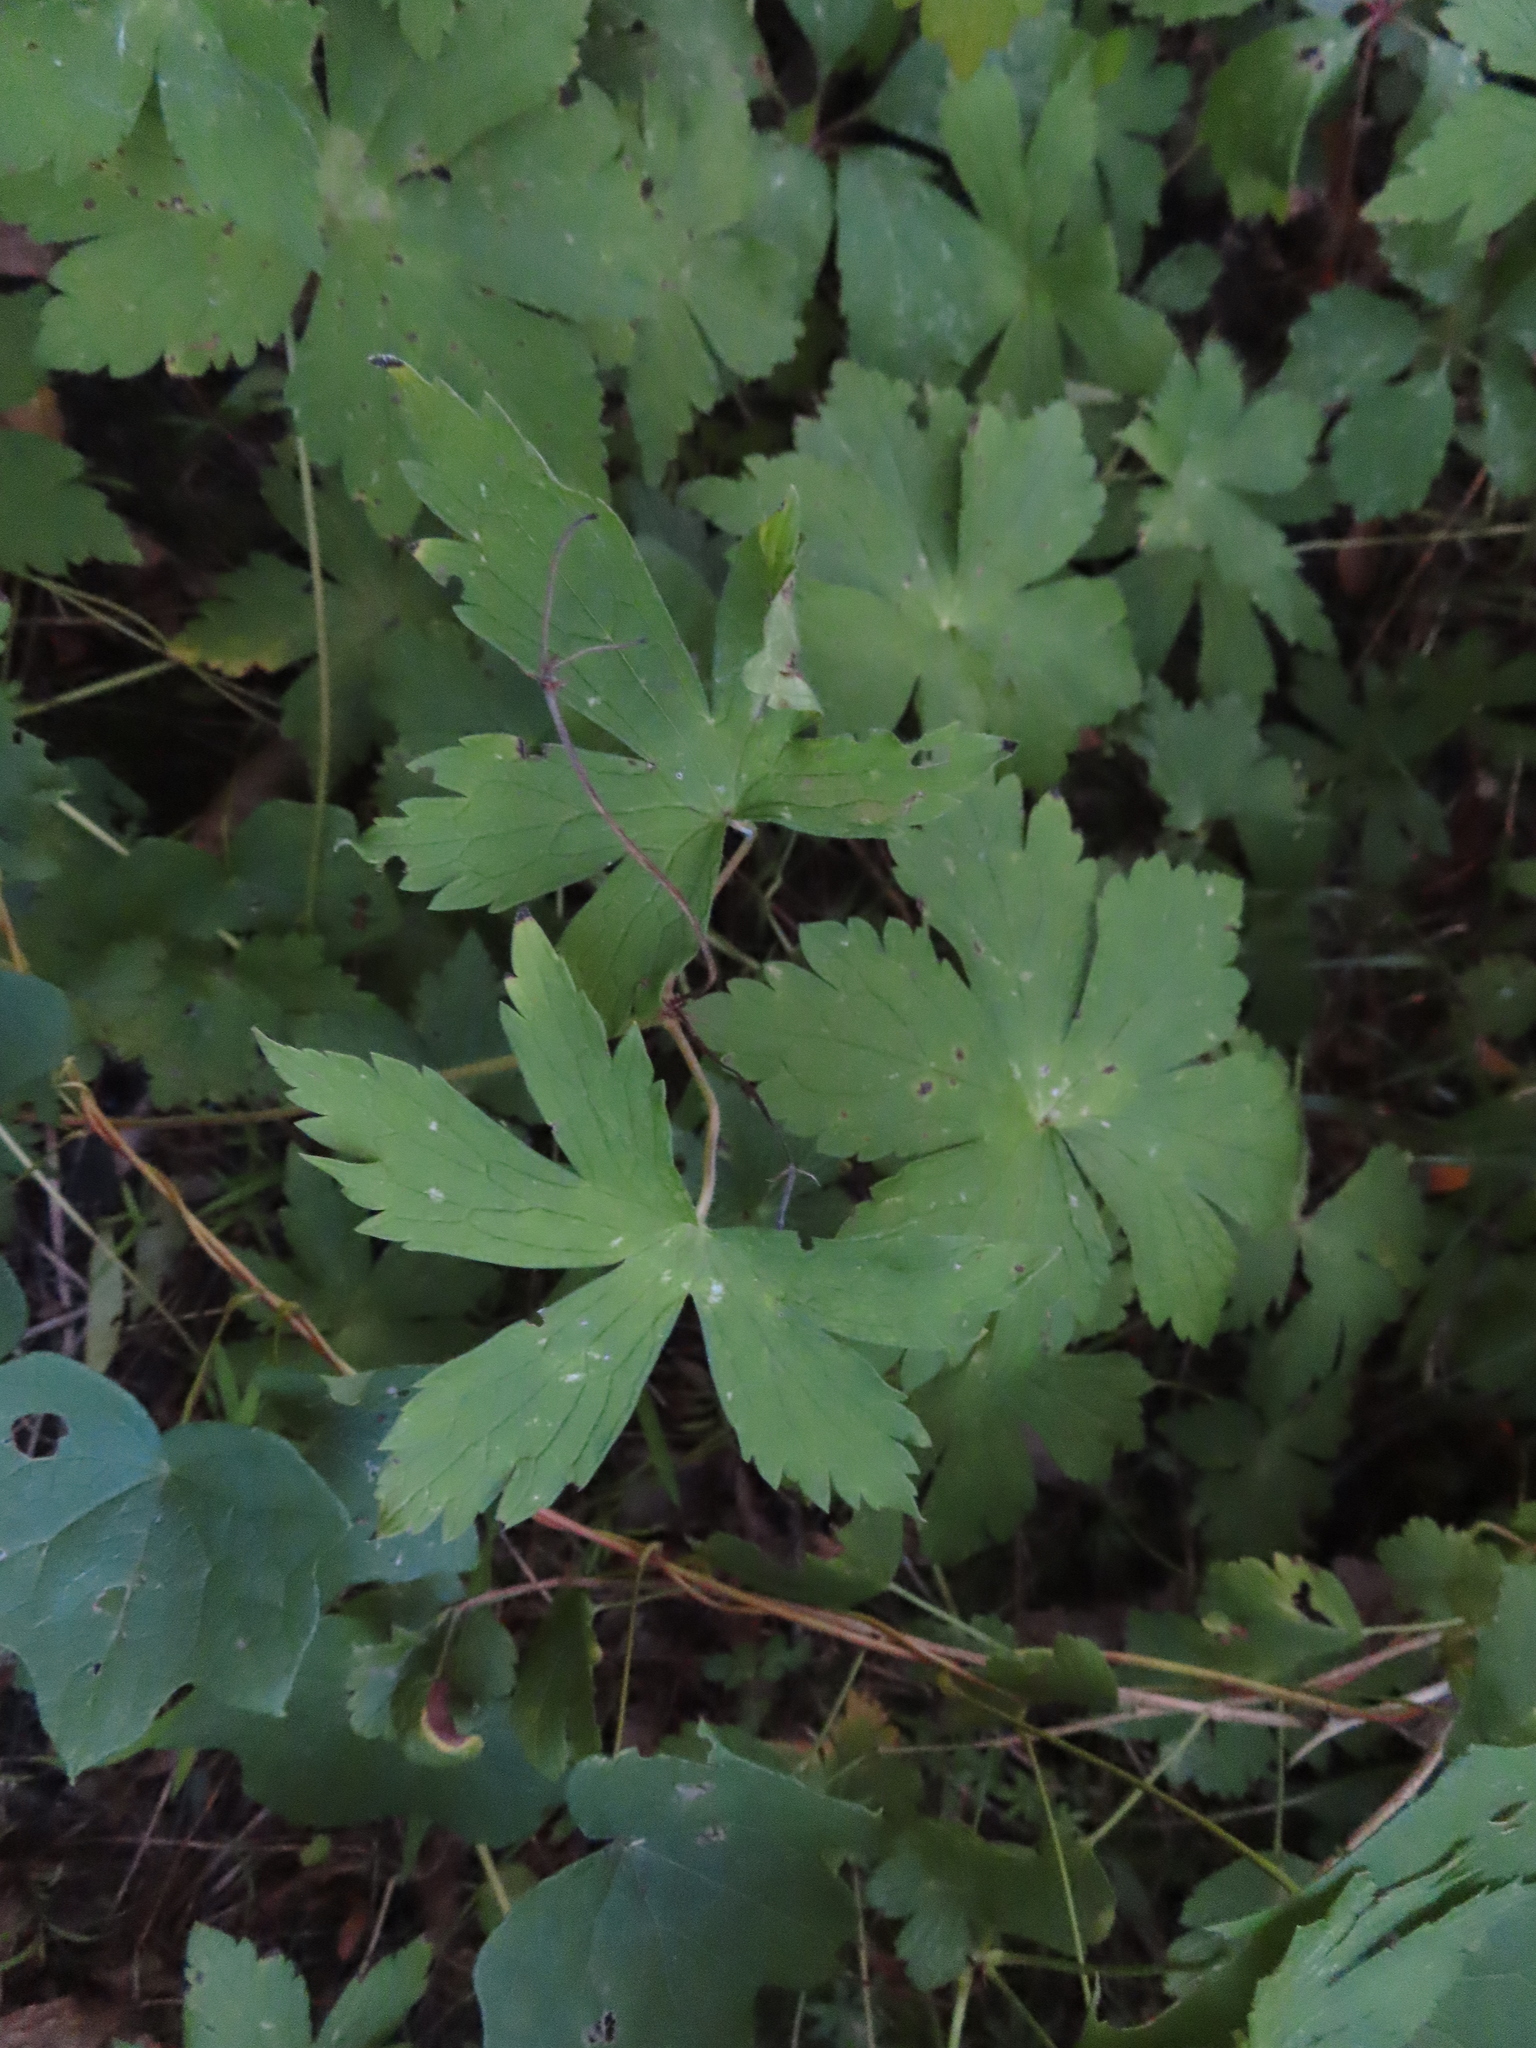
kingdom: Plantae
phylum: Tracheophyta
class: Magnoliopsida
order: Geraniales
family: Geraniaceae
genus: Geranium
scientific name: Geranium maculatum
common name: Spotted geranium
